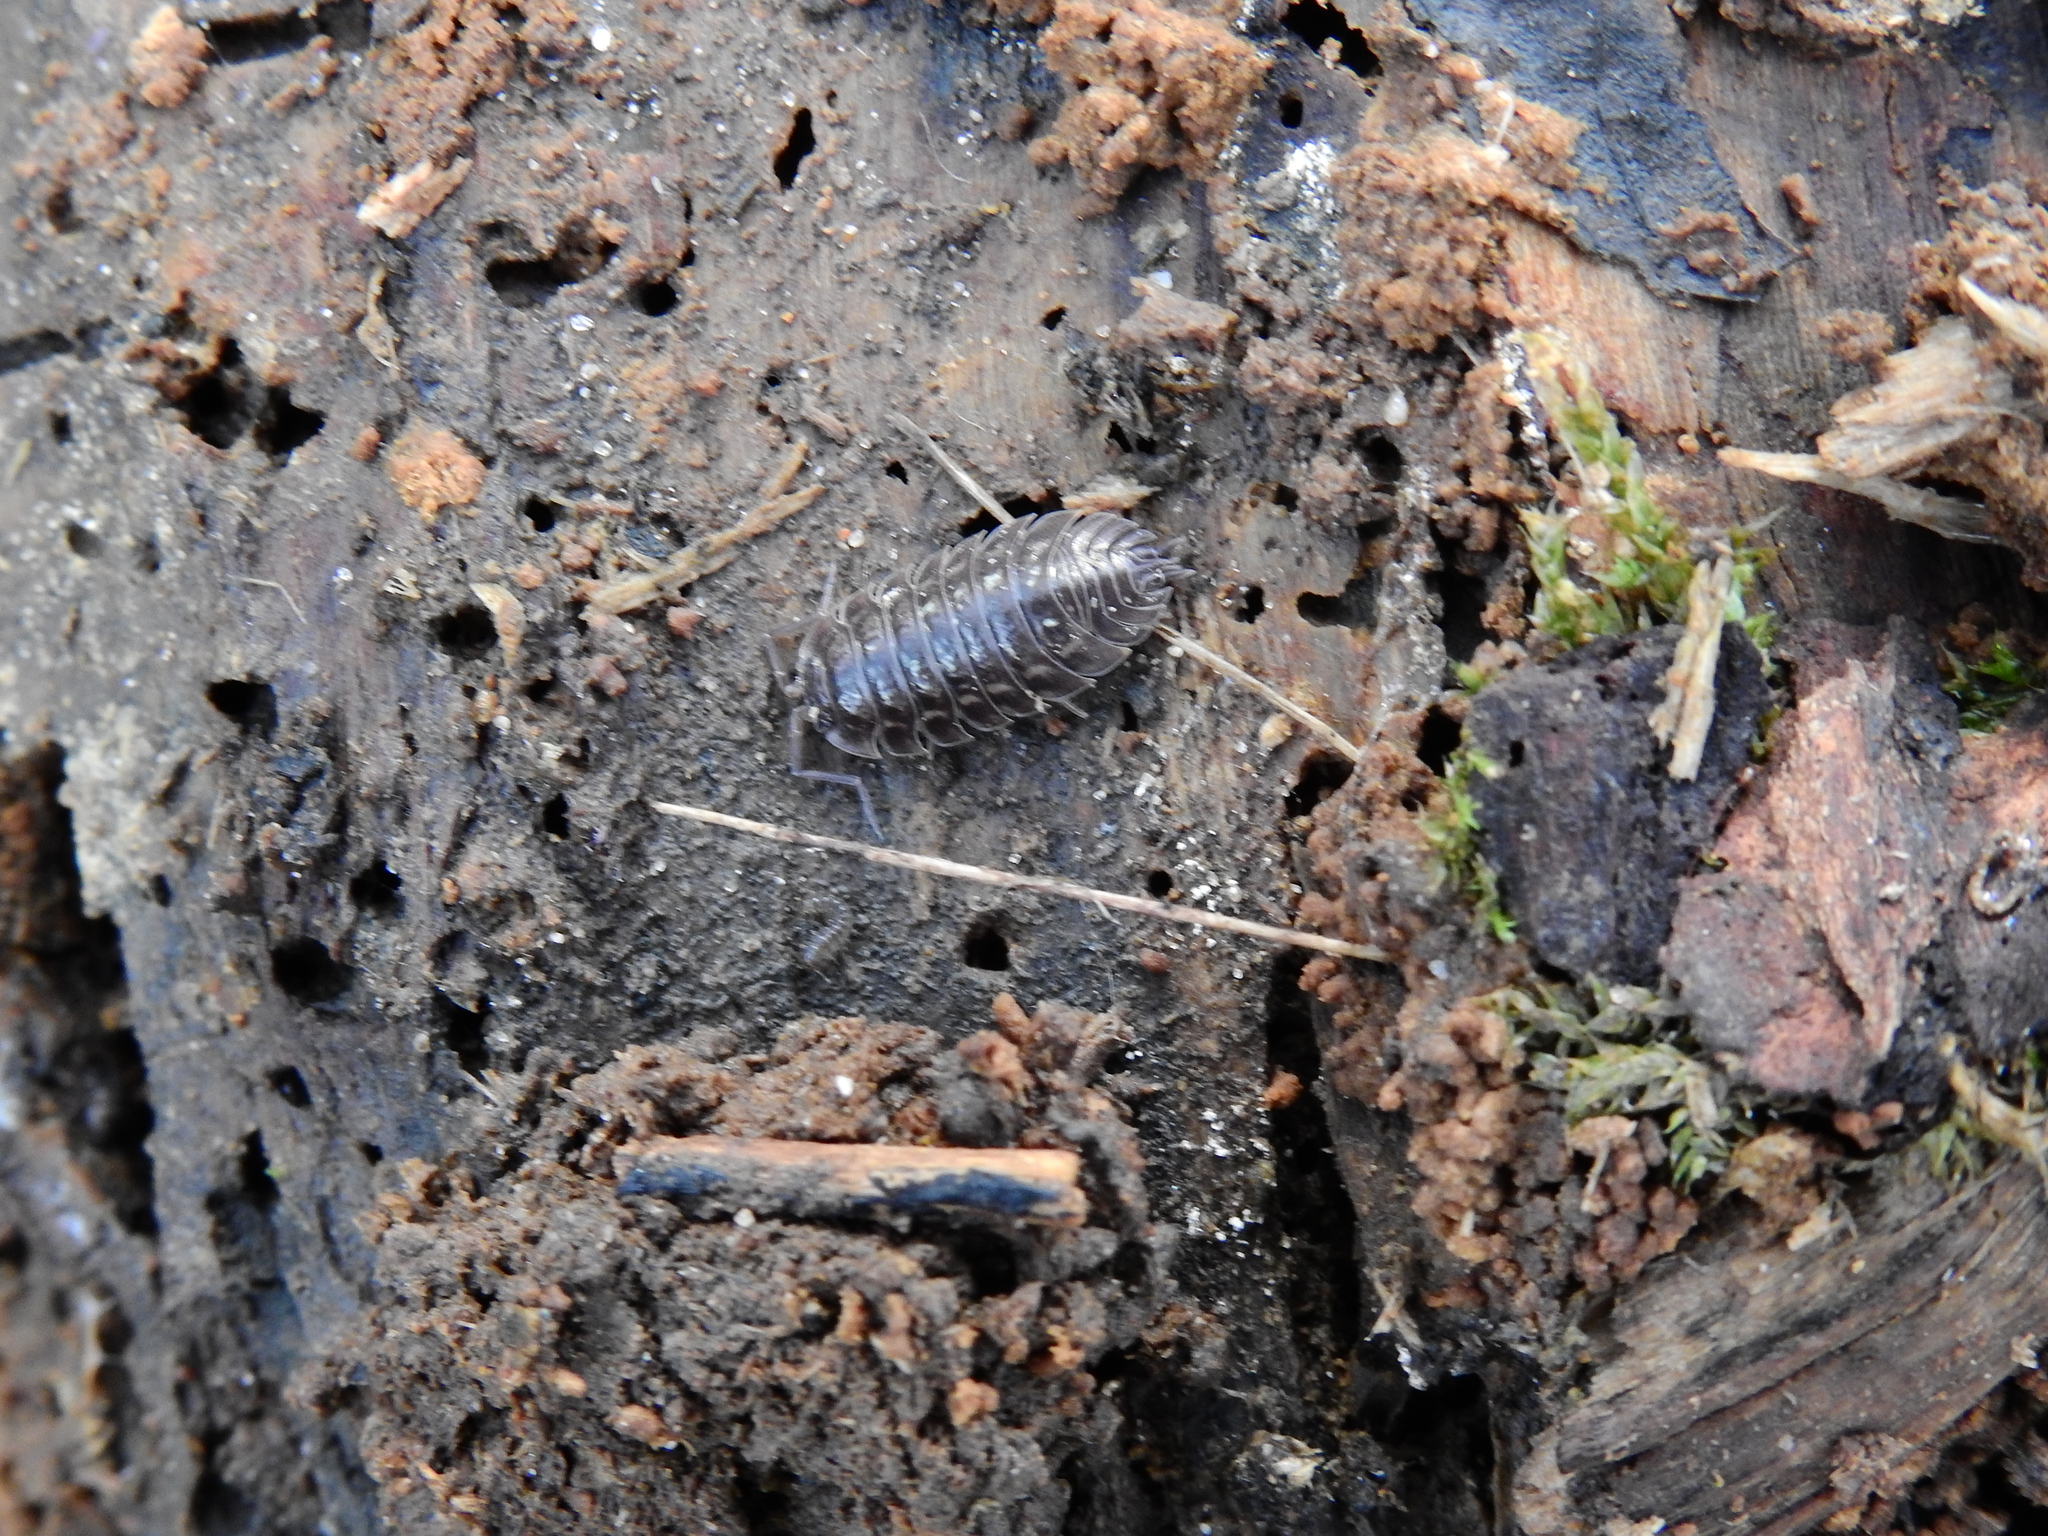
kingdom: Animalia
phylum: Arthropoda
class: Malacostraca
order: Isopoda
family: Oniscidae
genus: Oniscus
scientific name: Oniscus asellus
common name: Common shiny woodlouse
